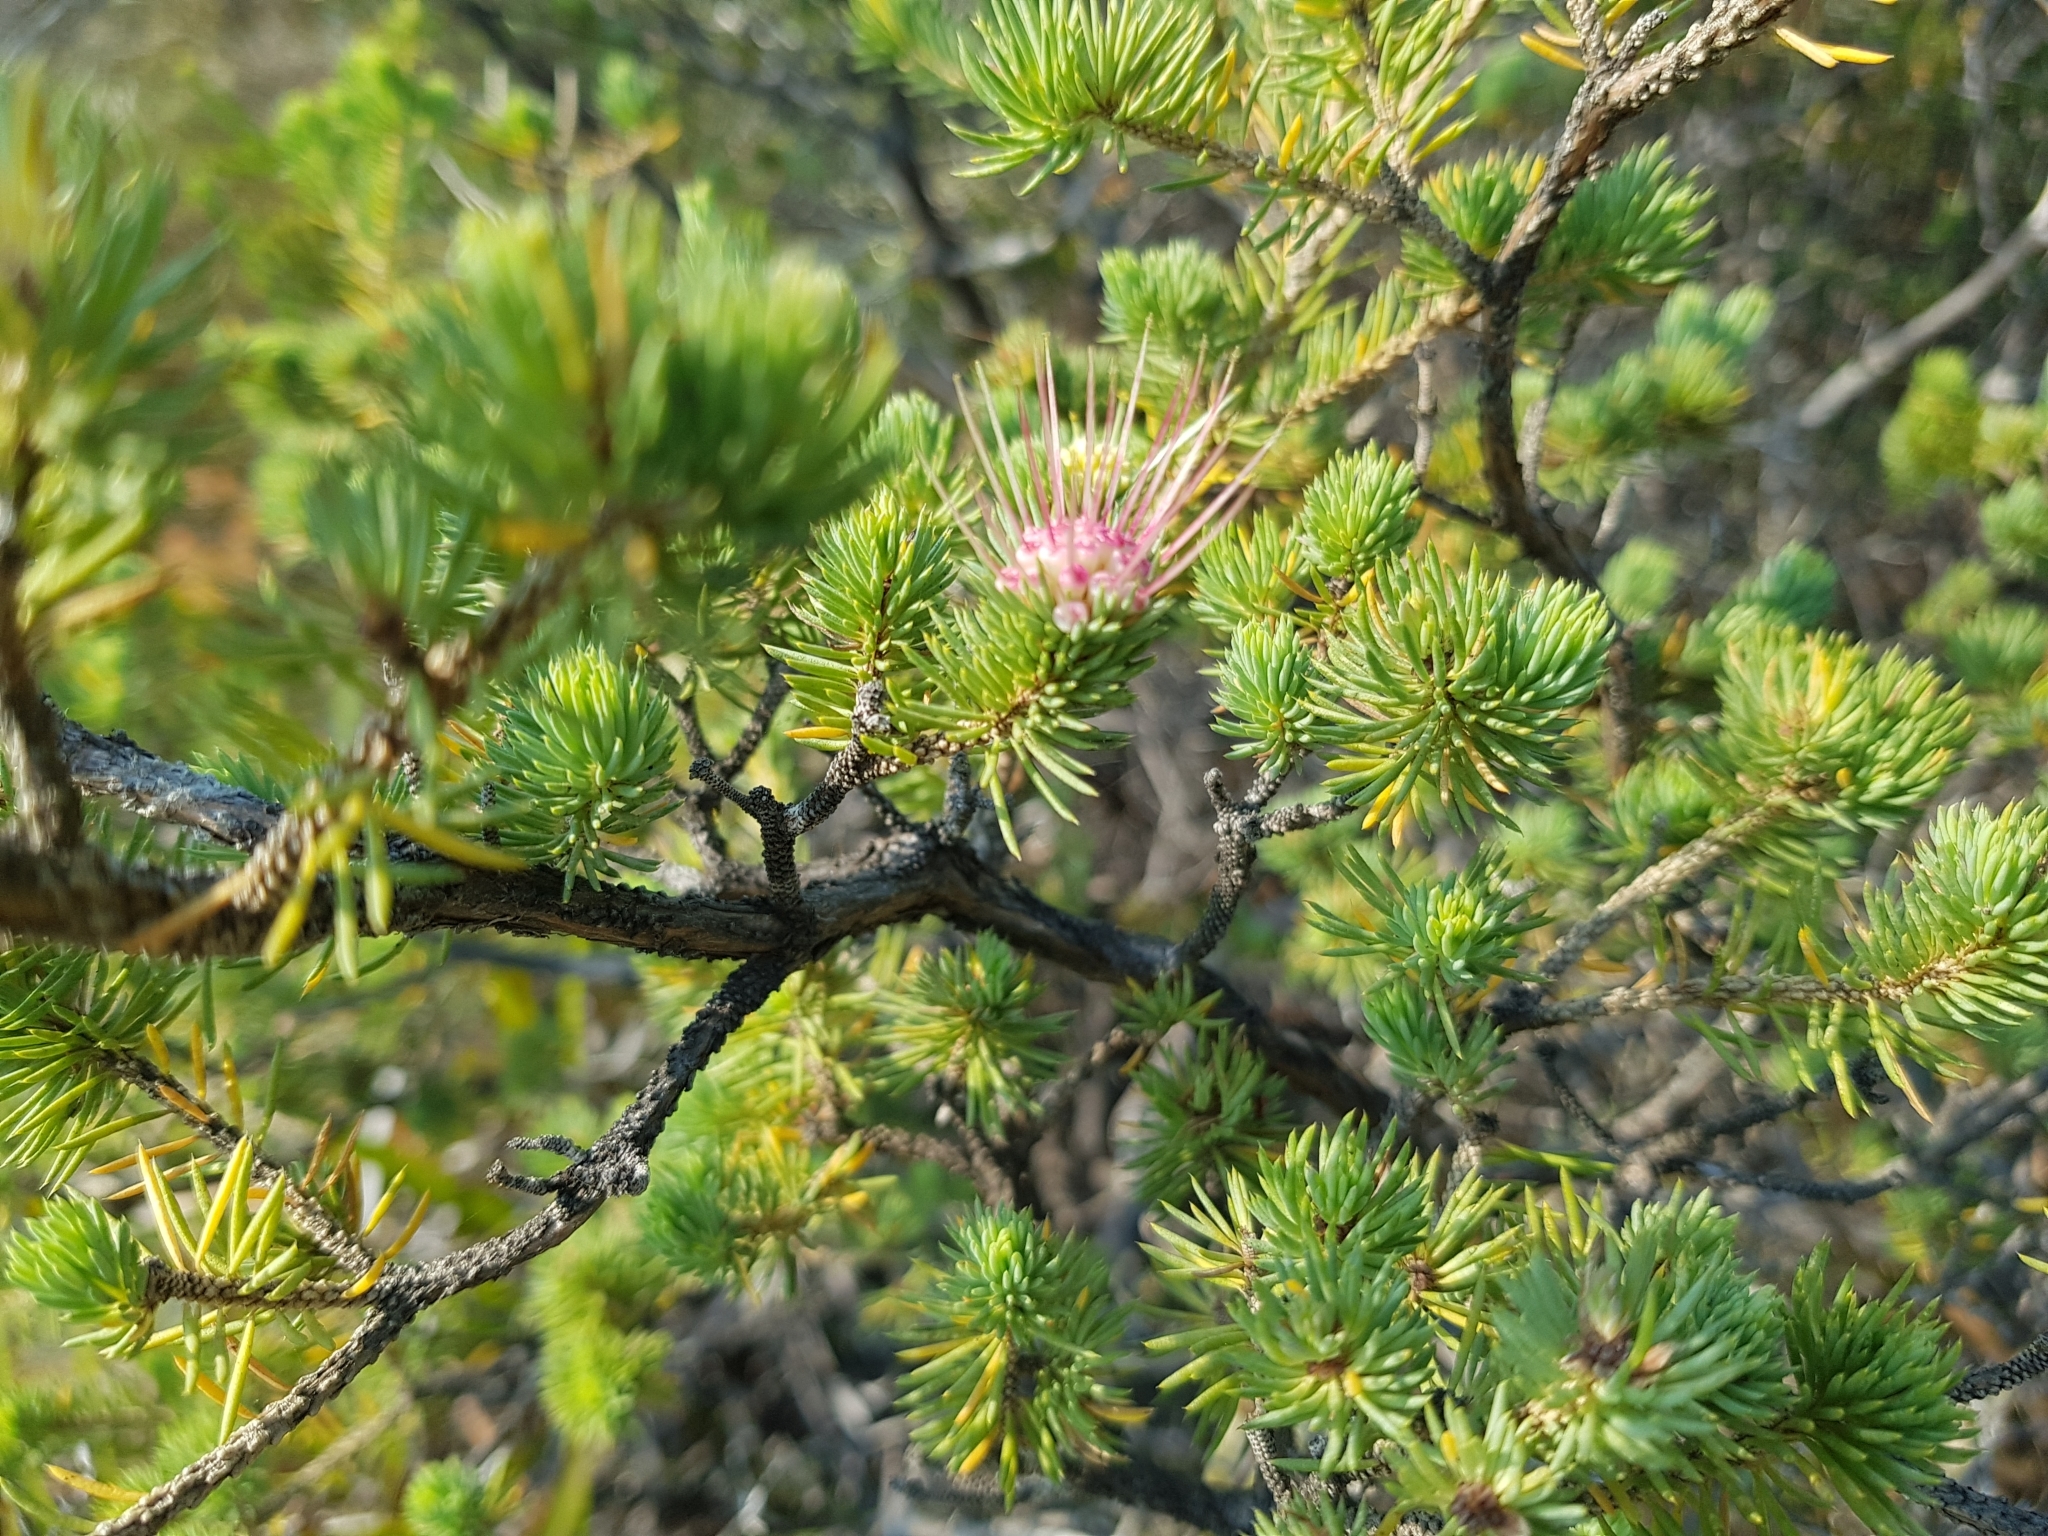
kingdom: Plantae
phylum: Tracheophyta
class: Magnoliopsida
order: Myrtales
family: Myrtaceae
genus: Darwinia
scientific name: Darwinia fascicularis
